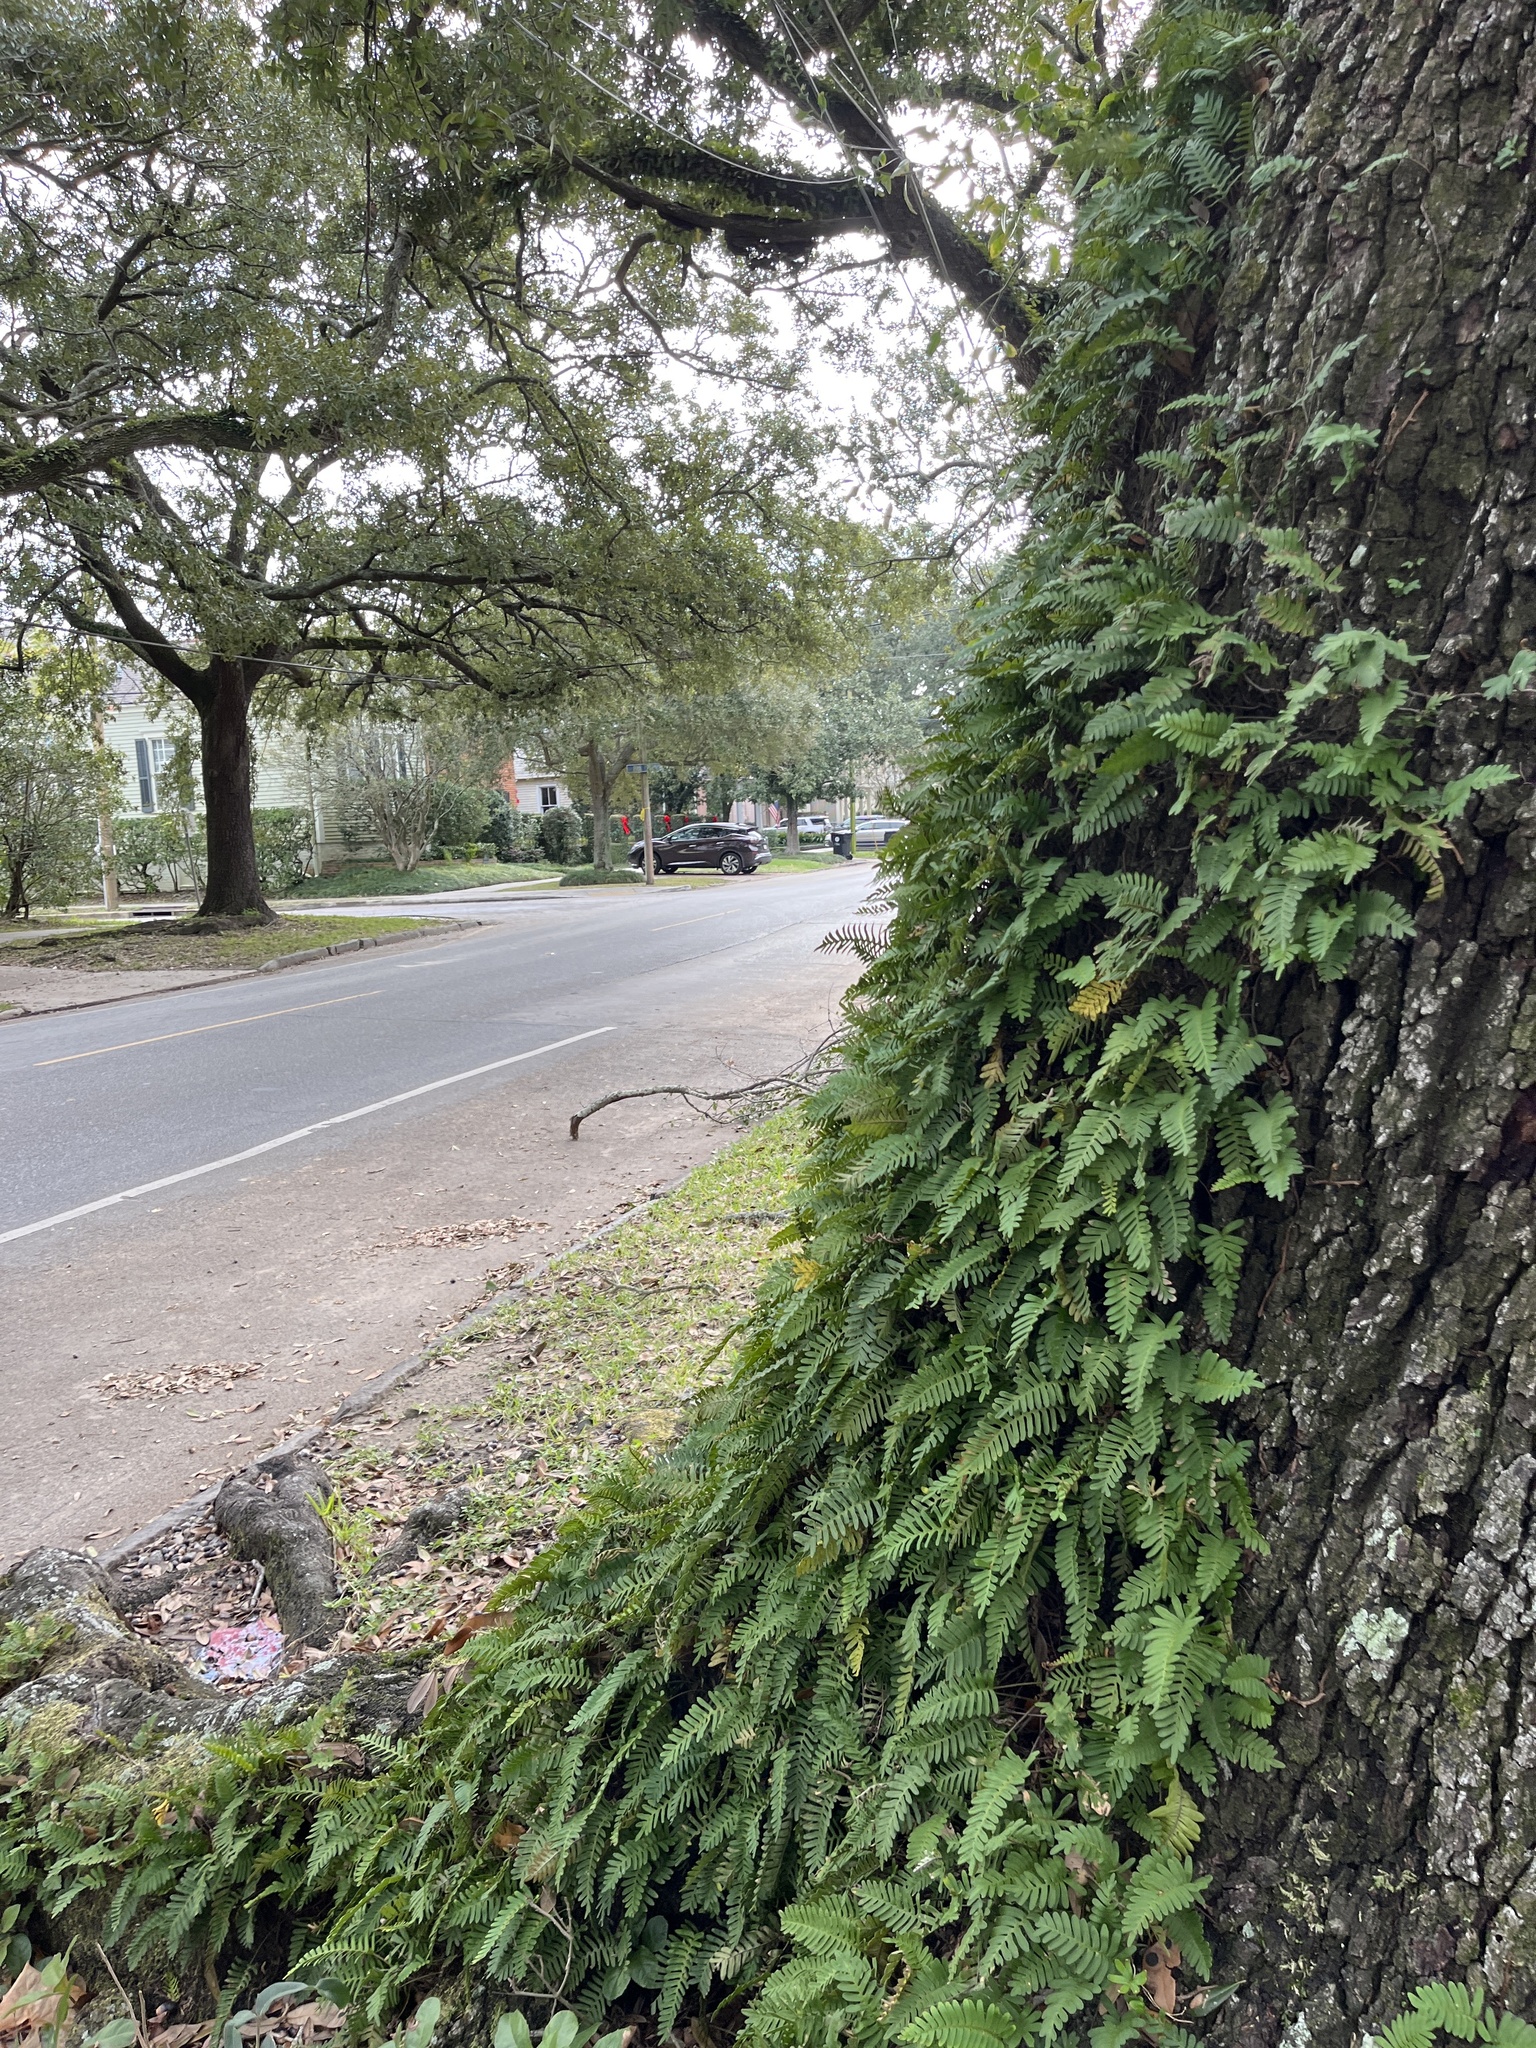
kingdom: Plantae
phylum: Tracheophyta
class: Polypodiopsida
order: Polypodiales
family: Polypodiaceae
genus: Pleopeltis
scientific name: Pleopeltis michauxiana
